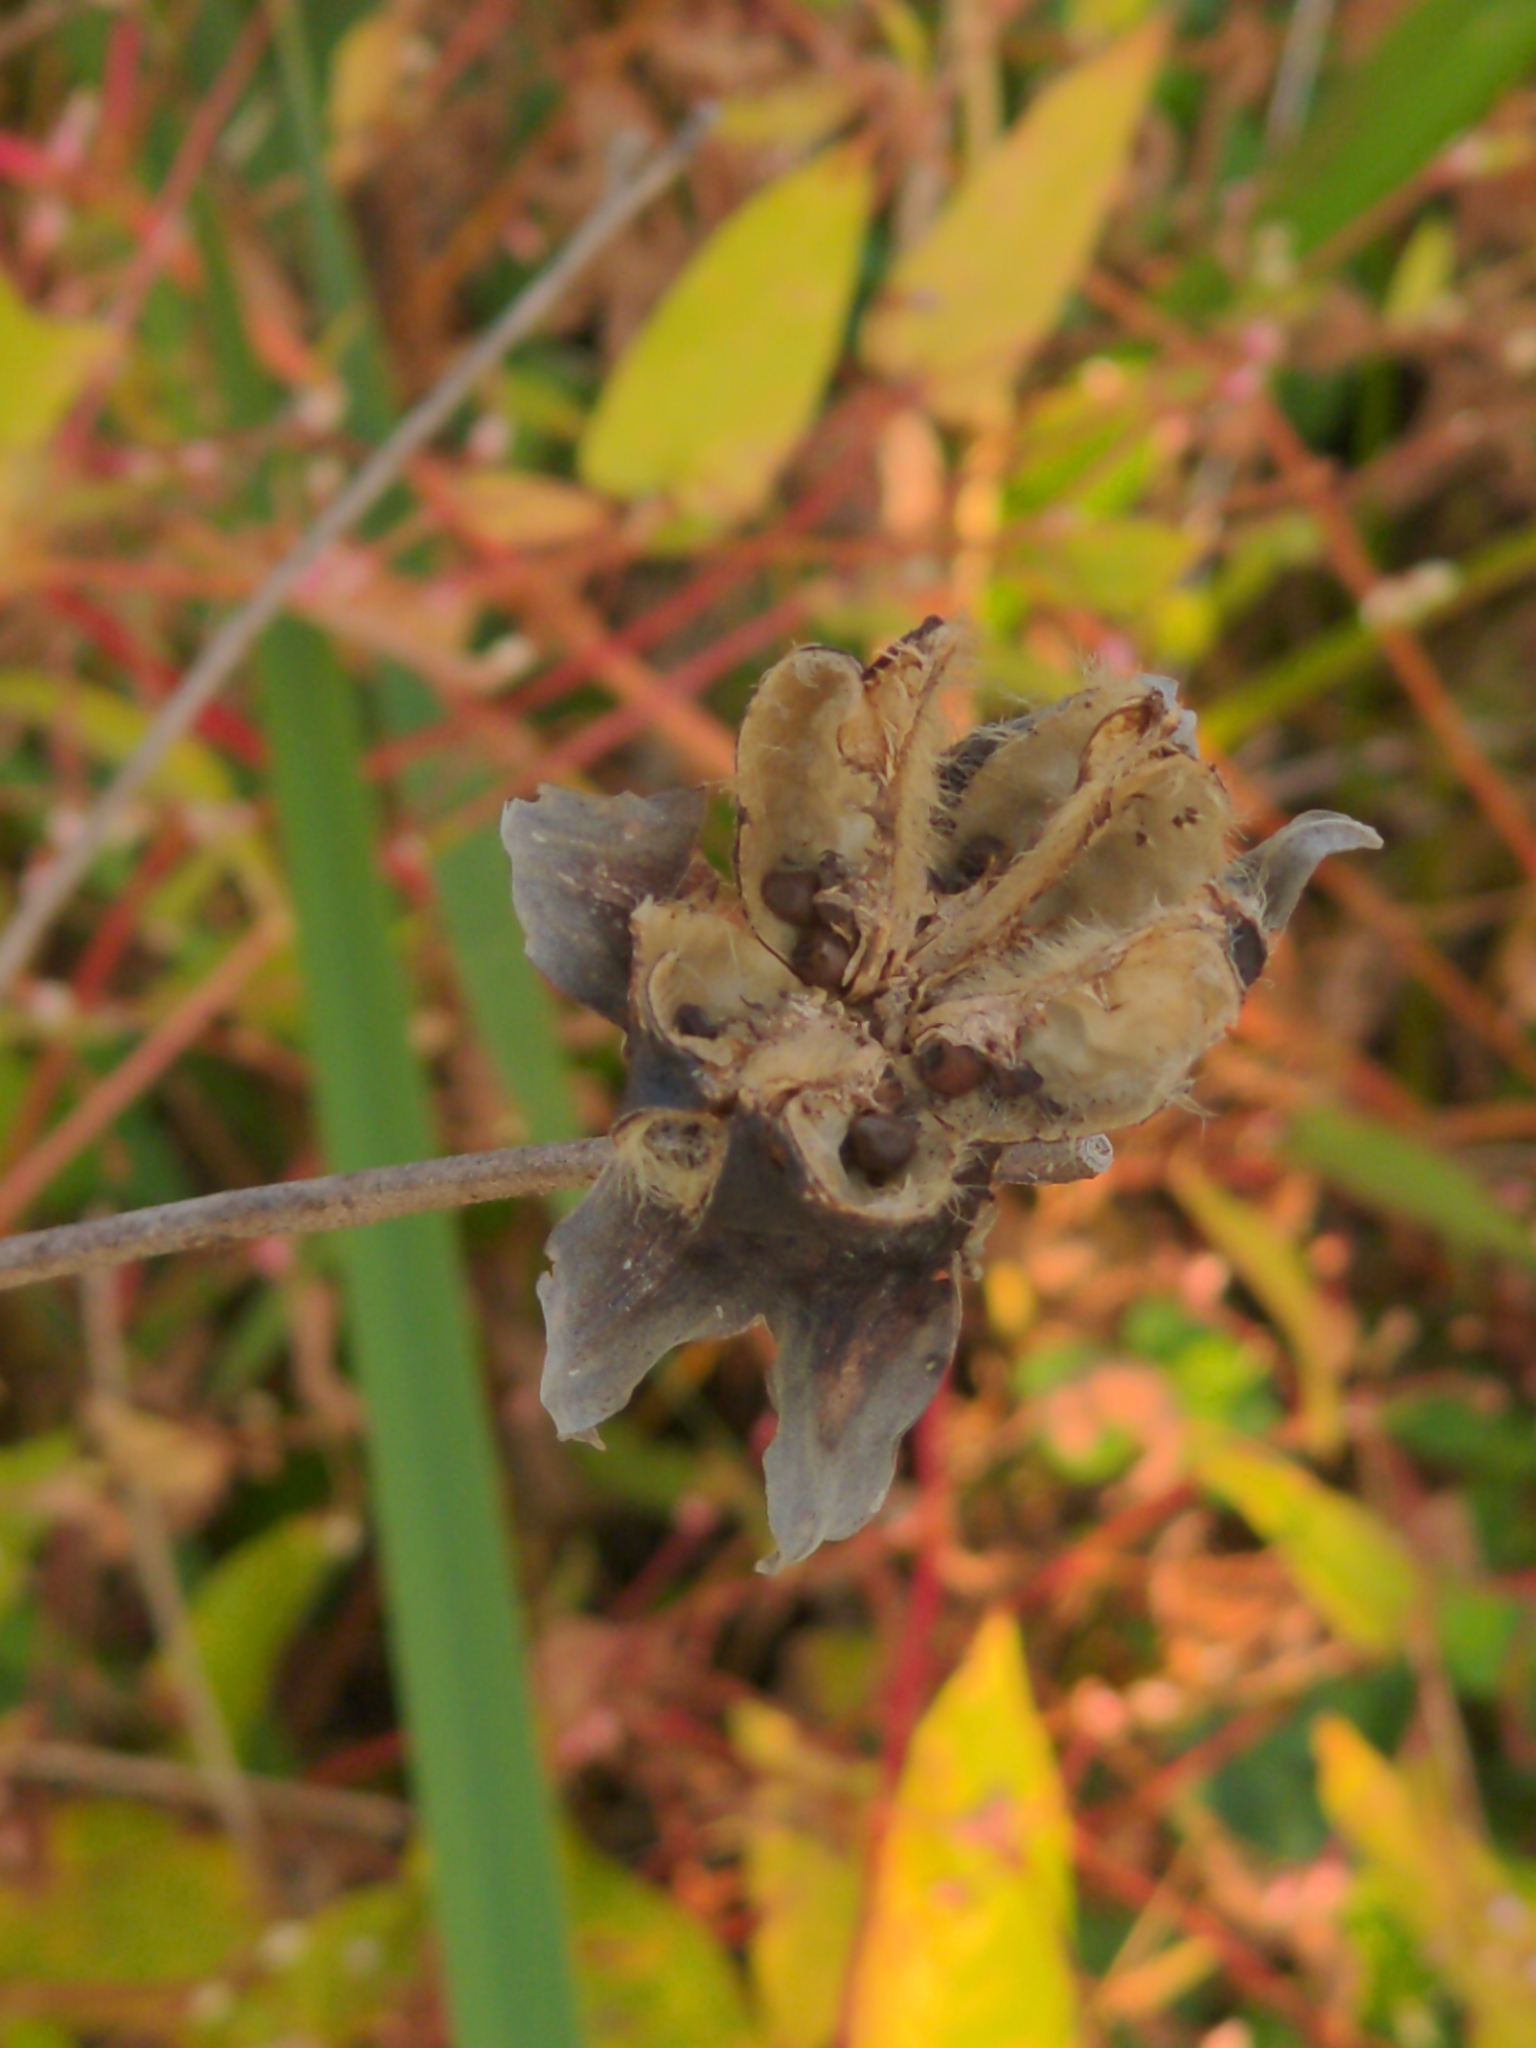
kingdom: Plantae
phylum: Tracheophyta
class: Magnoliopsida
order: Malvales
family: Malvaceae
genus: Hibiscus
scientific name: Hibiscus moscheutos
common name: Common rose-mallow
